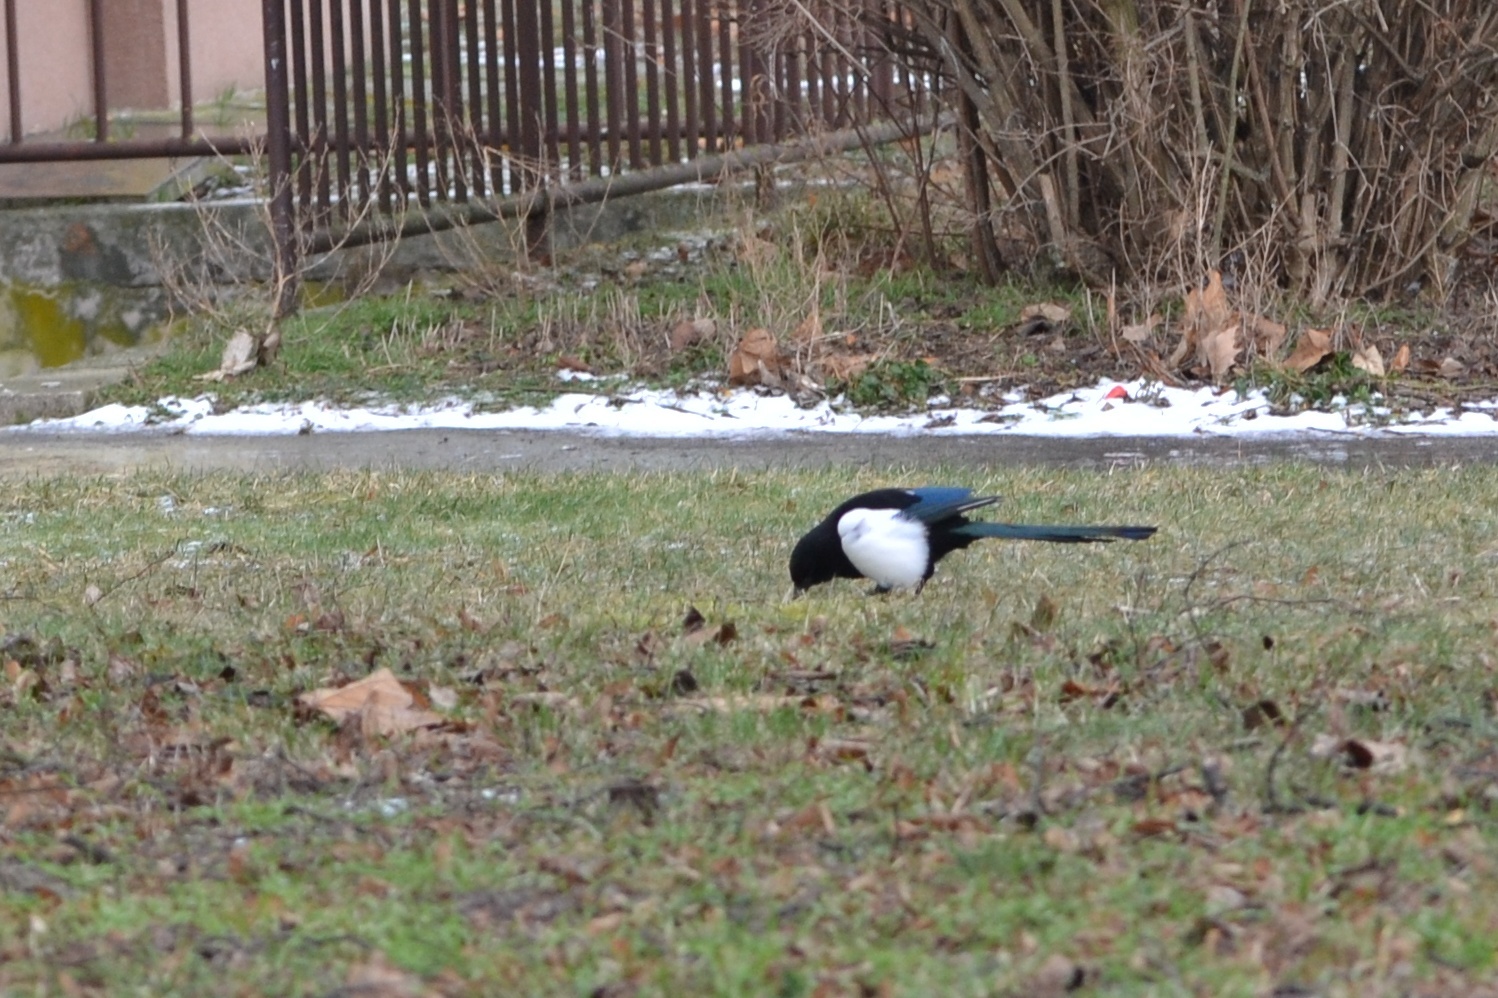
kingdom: Animalia
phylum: Chordata
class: Aves
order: Passeriformes
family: Corvidae
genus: Pica
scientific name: Pica pica
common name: Eurasian magpie
